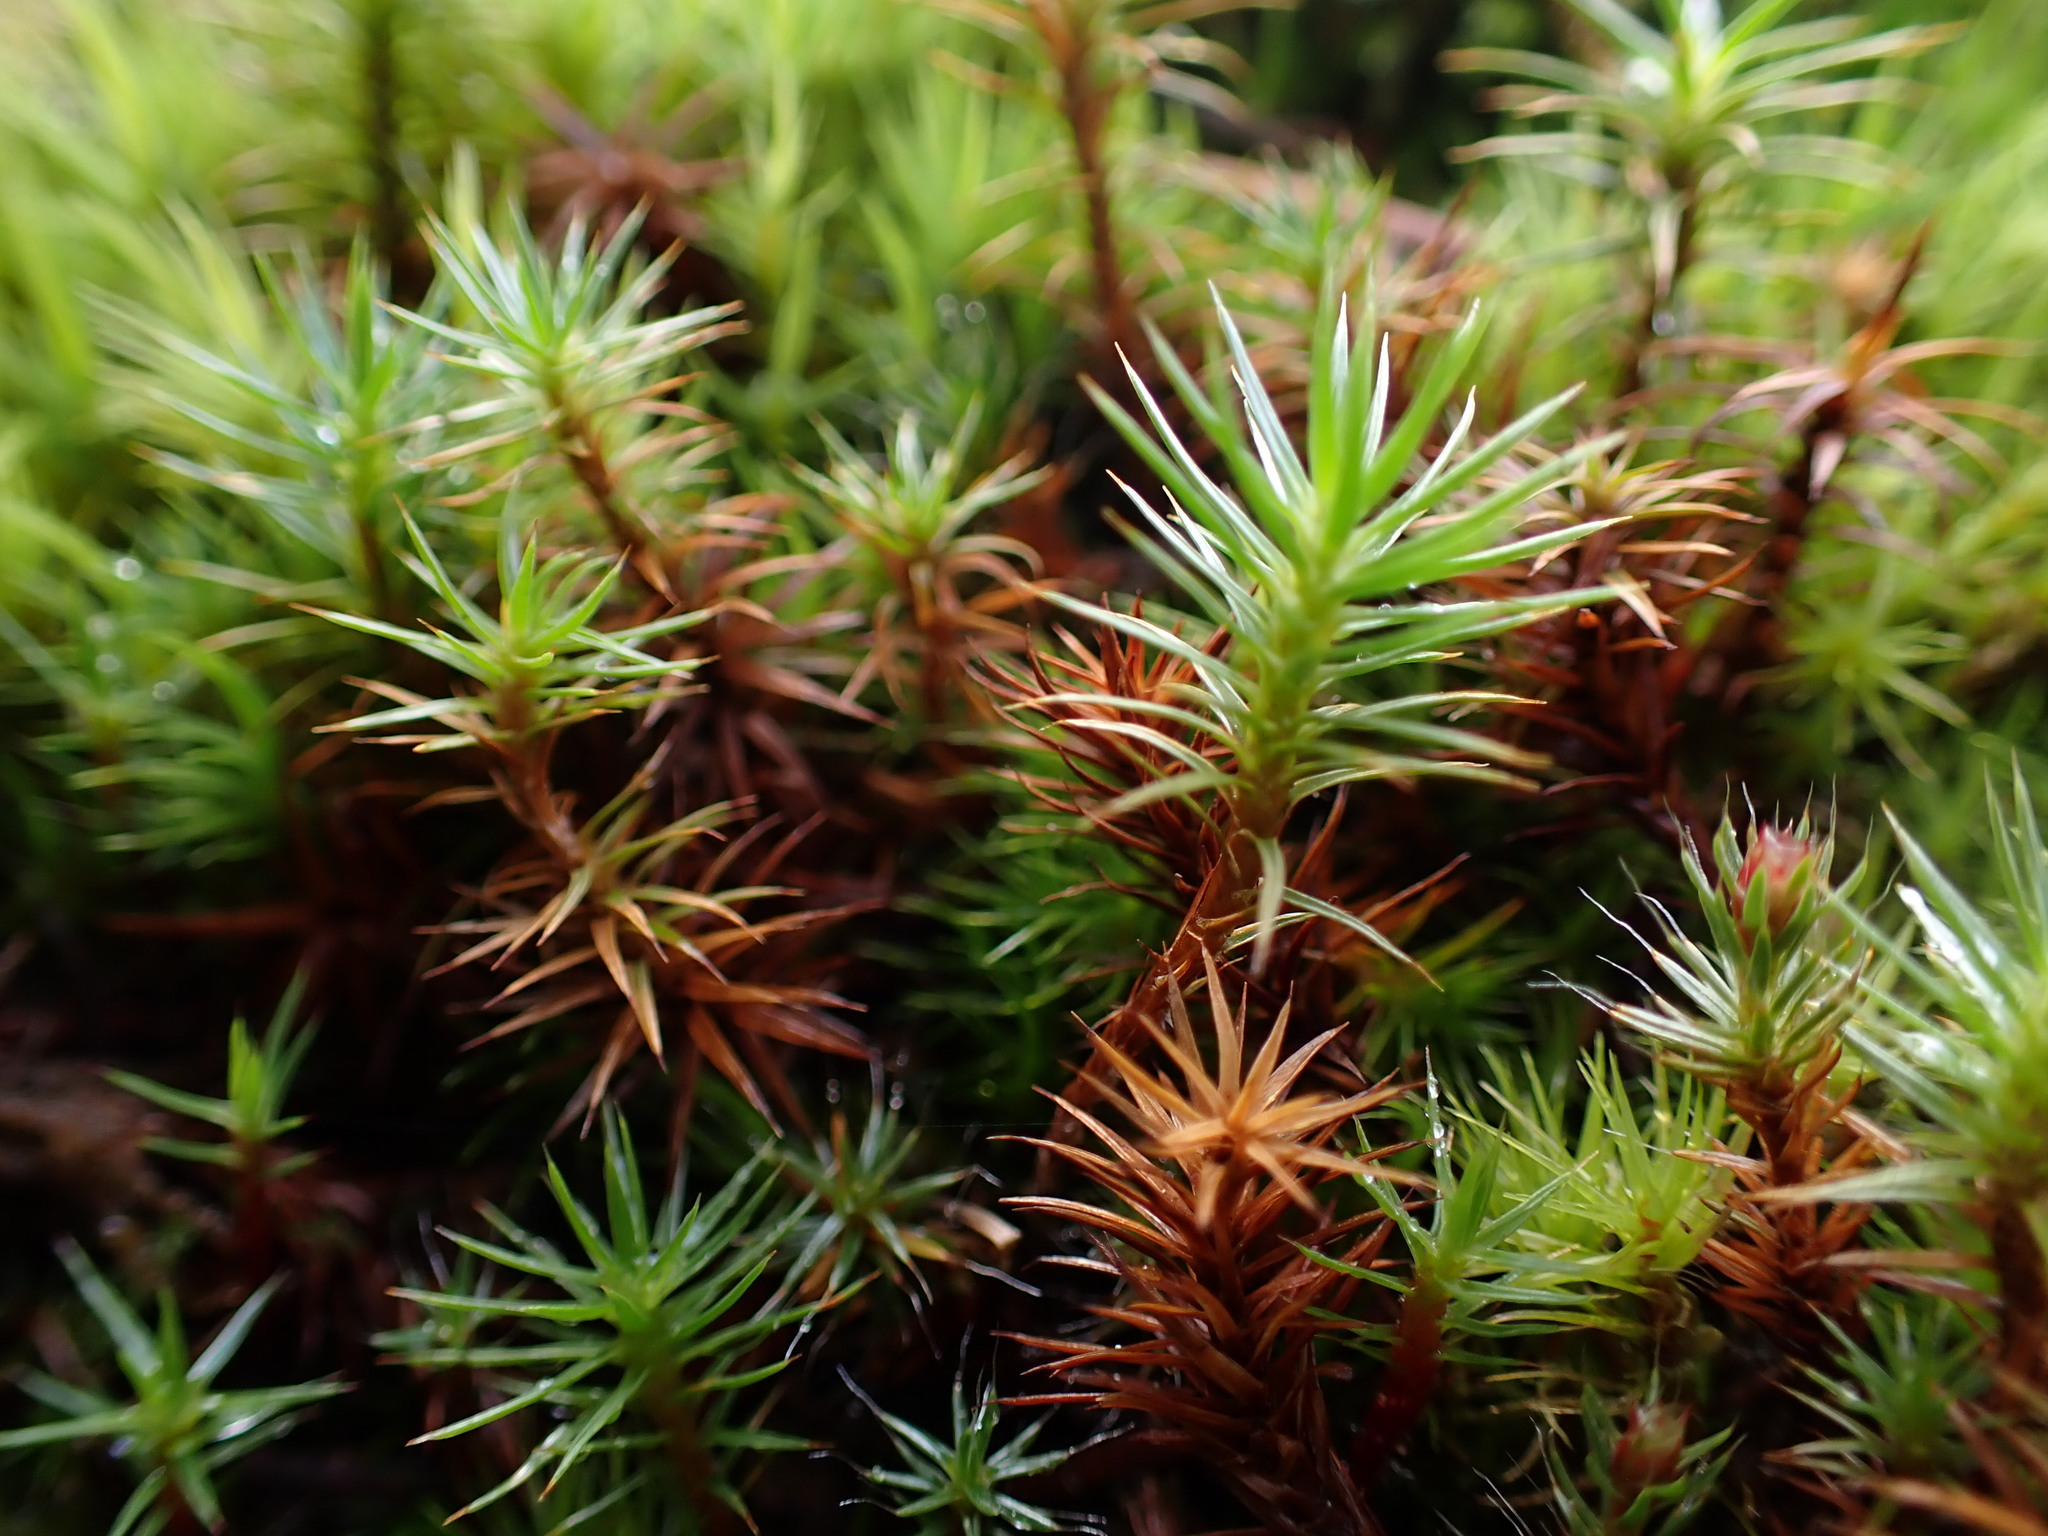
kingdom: Plantae
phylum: Bryophyta
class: Polytrichopsida
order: Polytrichales
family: Polytrichaceae
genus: Polytrichum
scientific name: Polytrichum juniperinum
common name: Juniper haircap moss
